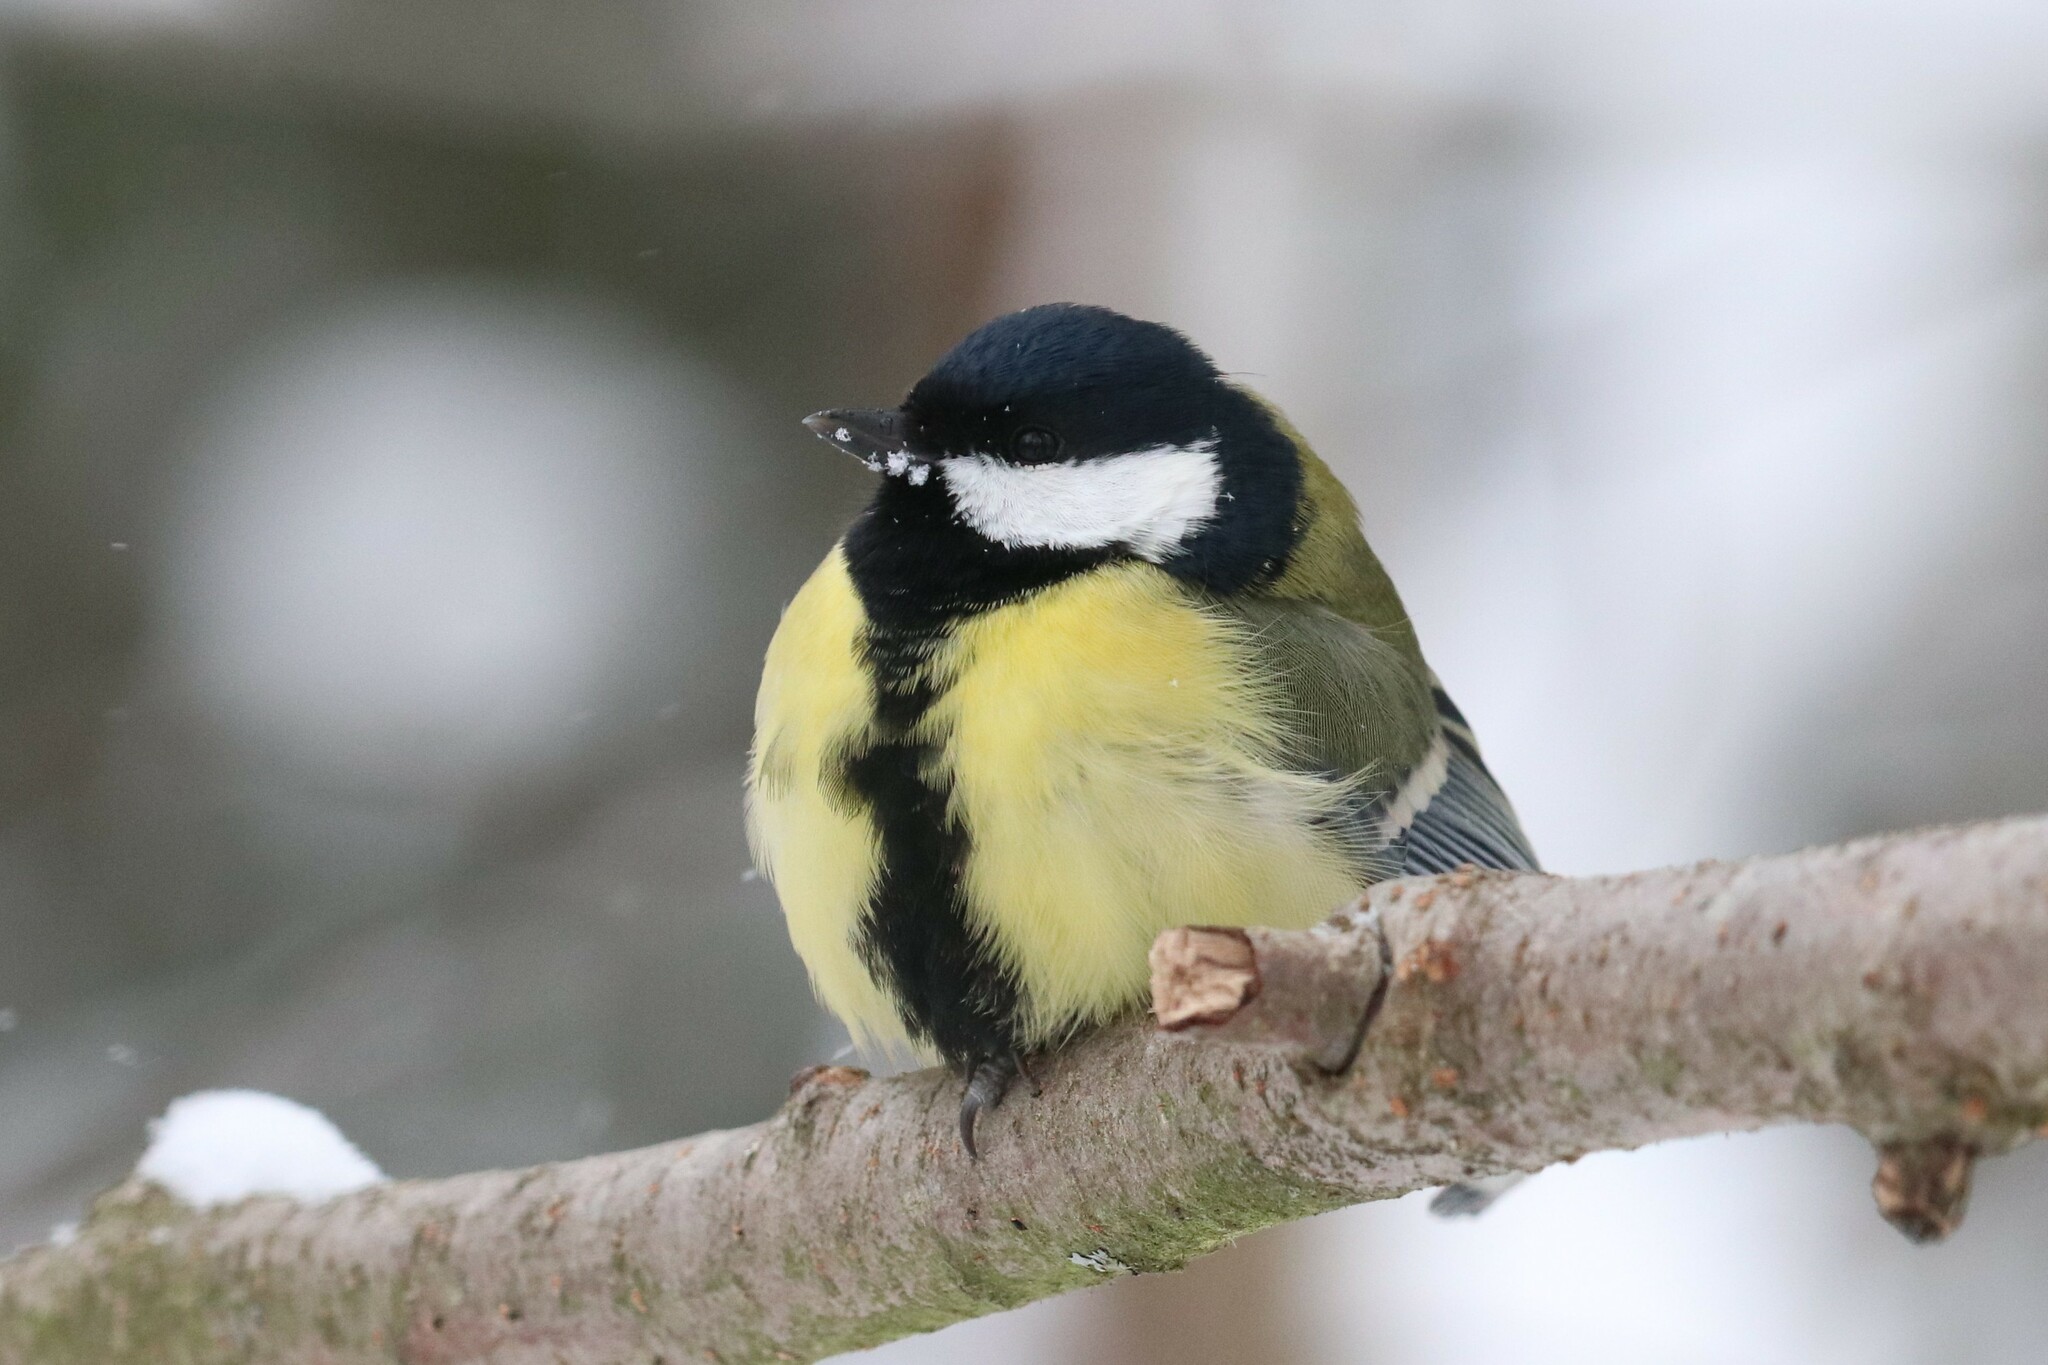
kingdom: Animalia
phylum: Chordata
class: Aves
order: Passeriformes
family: Paridae
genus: Parus
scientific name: Parus major
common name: Great tit
